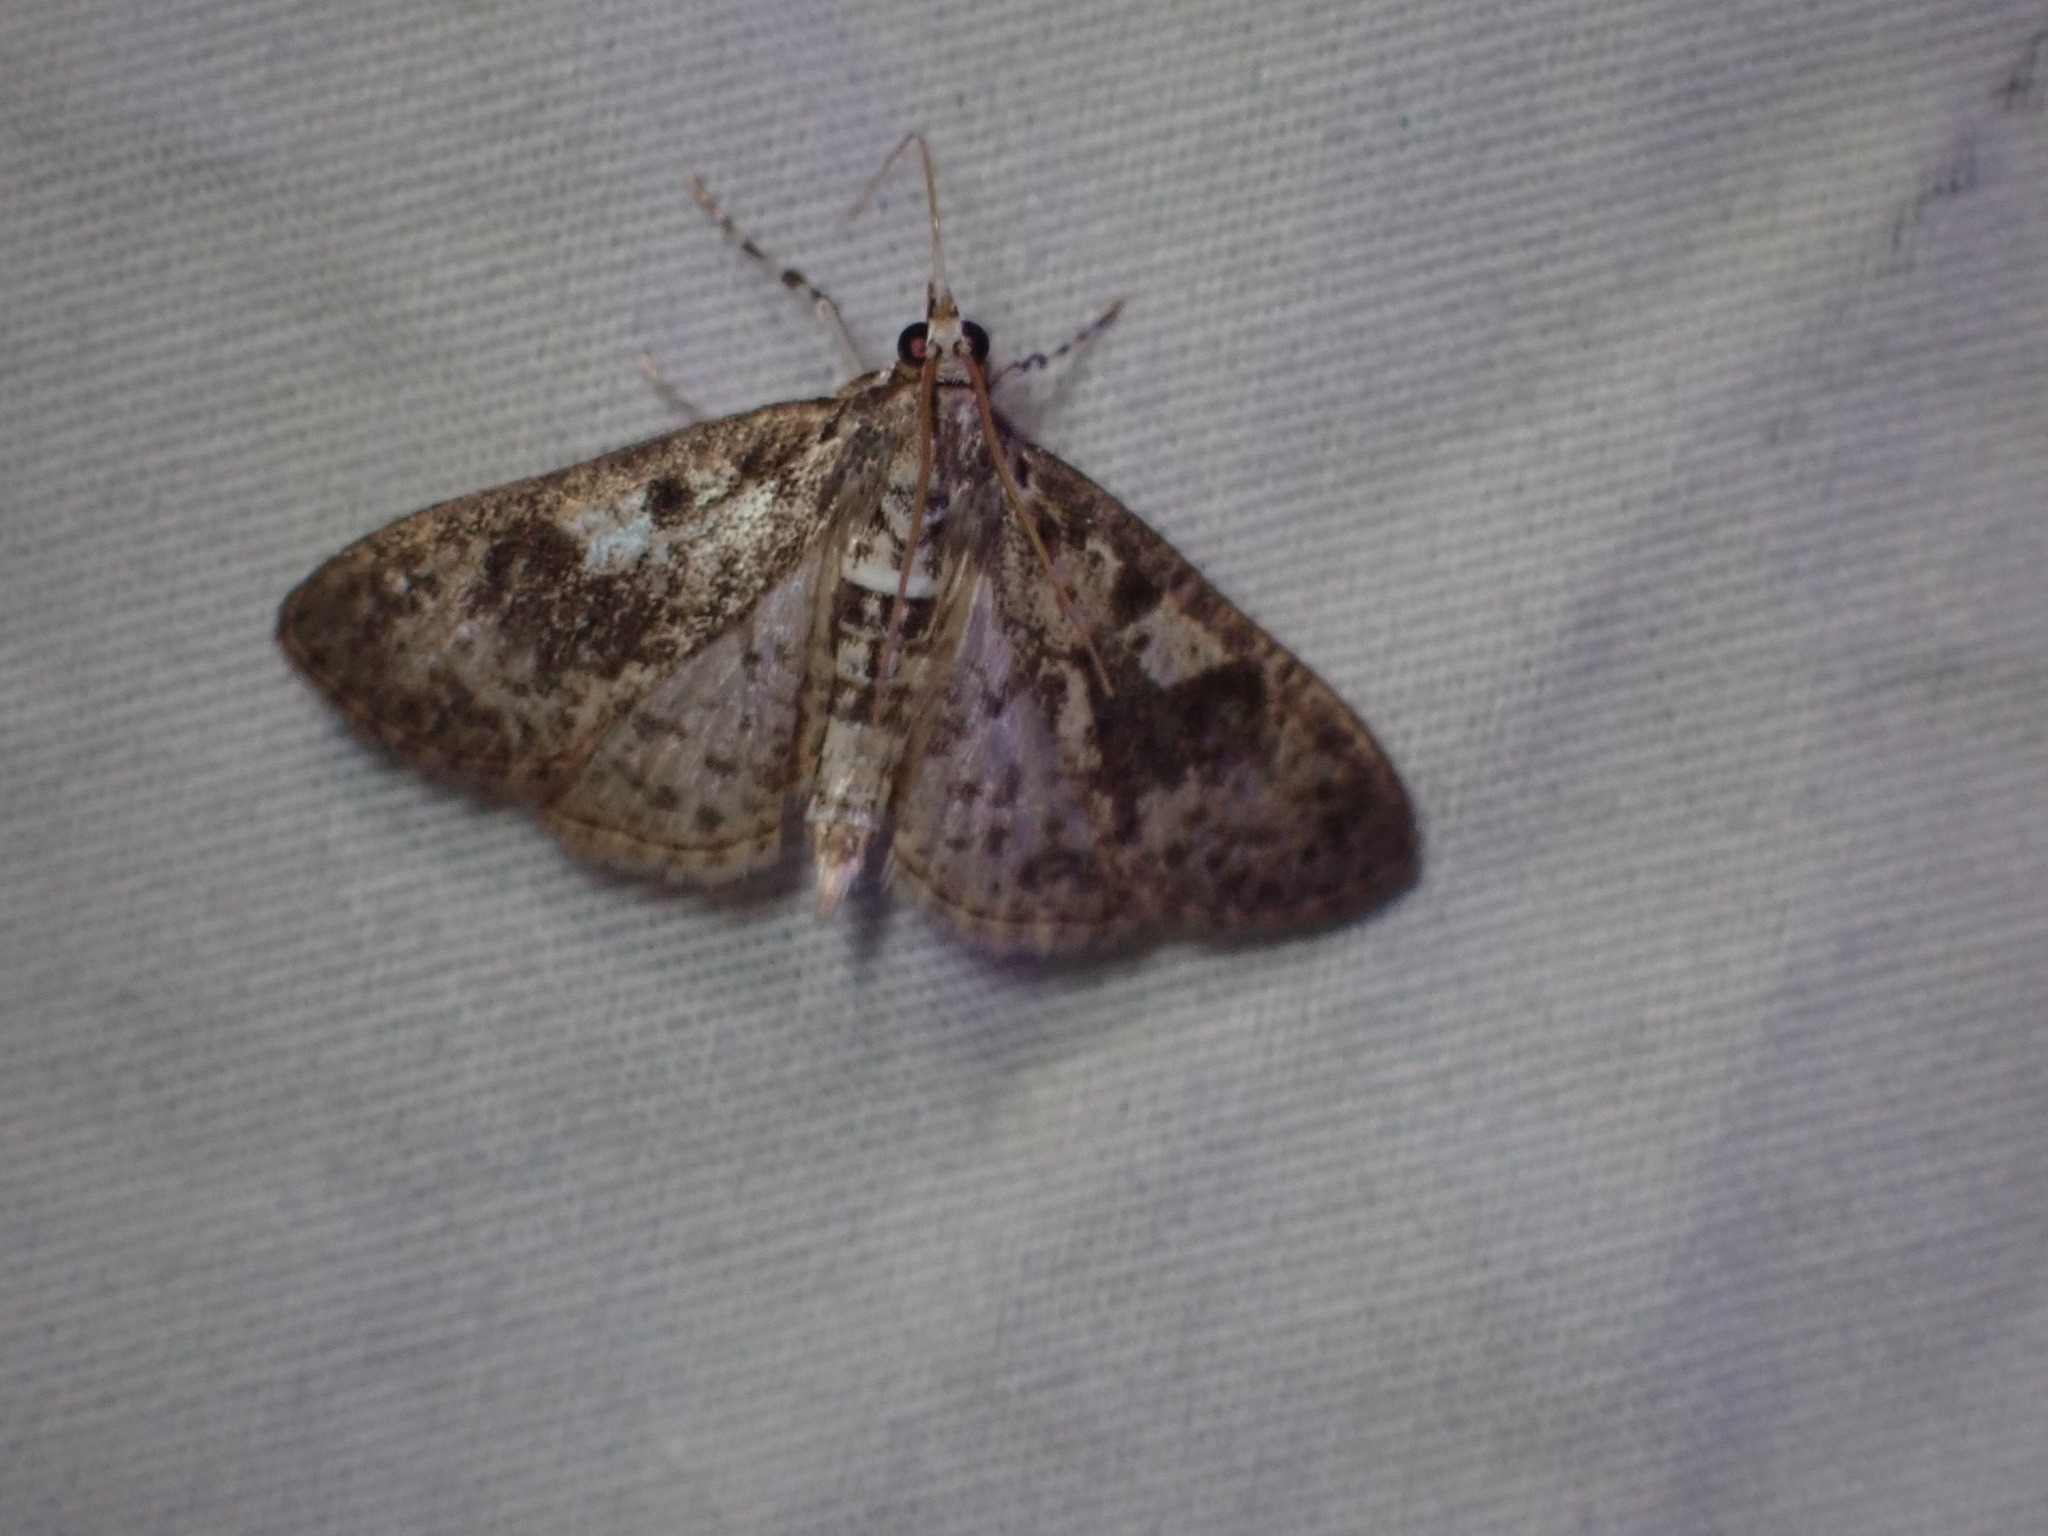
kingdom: Animalia
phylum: Arthropoda
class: Insecta
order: Lepidoptera
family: Crambidae
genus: Palpita
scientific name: Palpita magniferalis
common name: Splendid palpita moth
